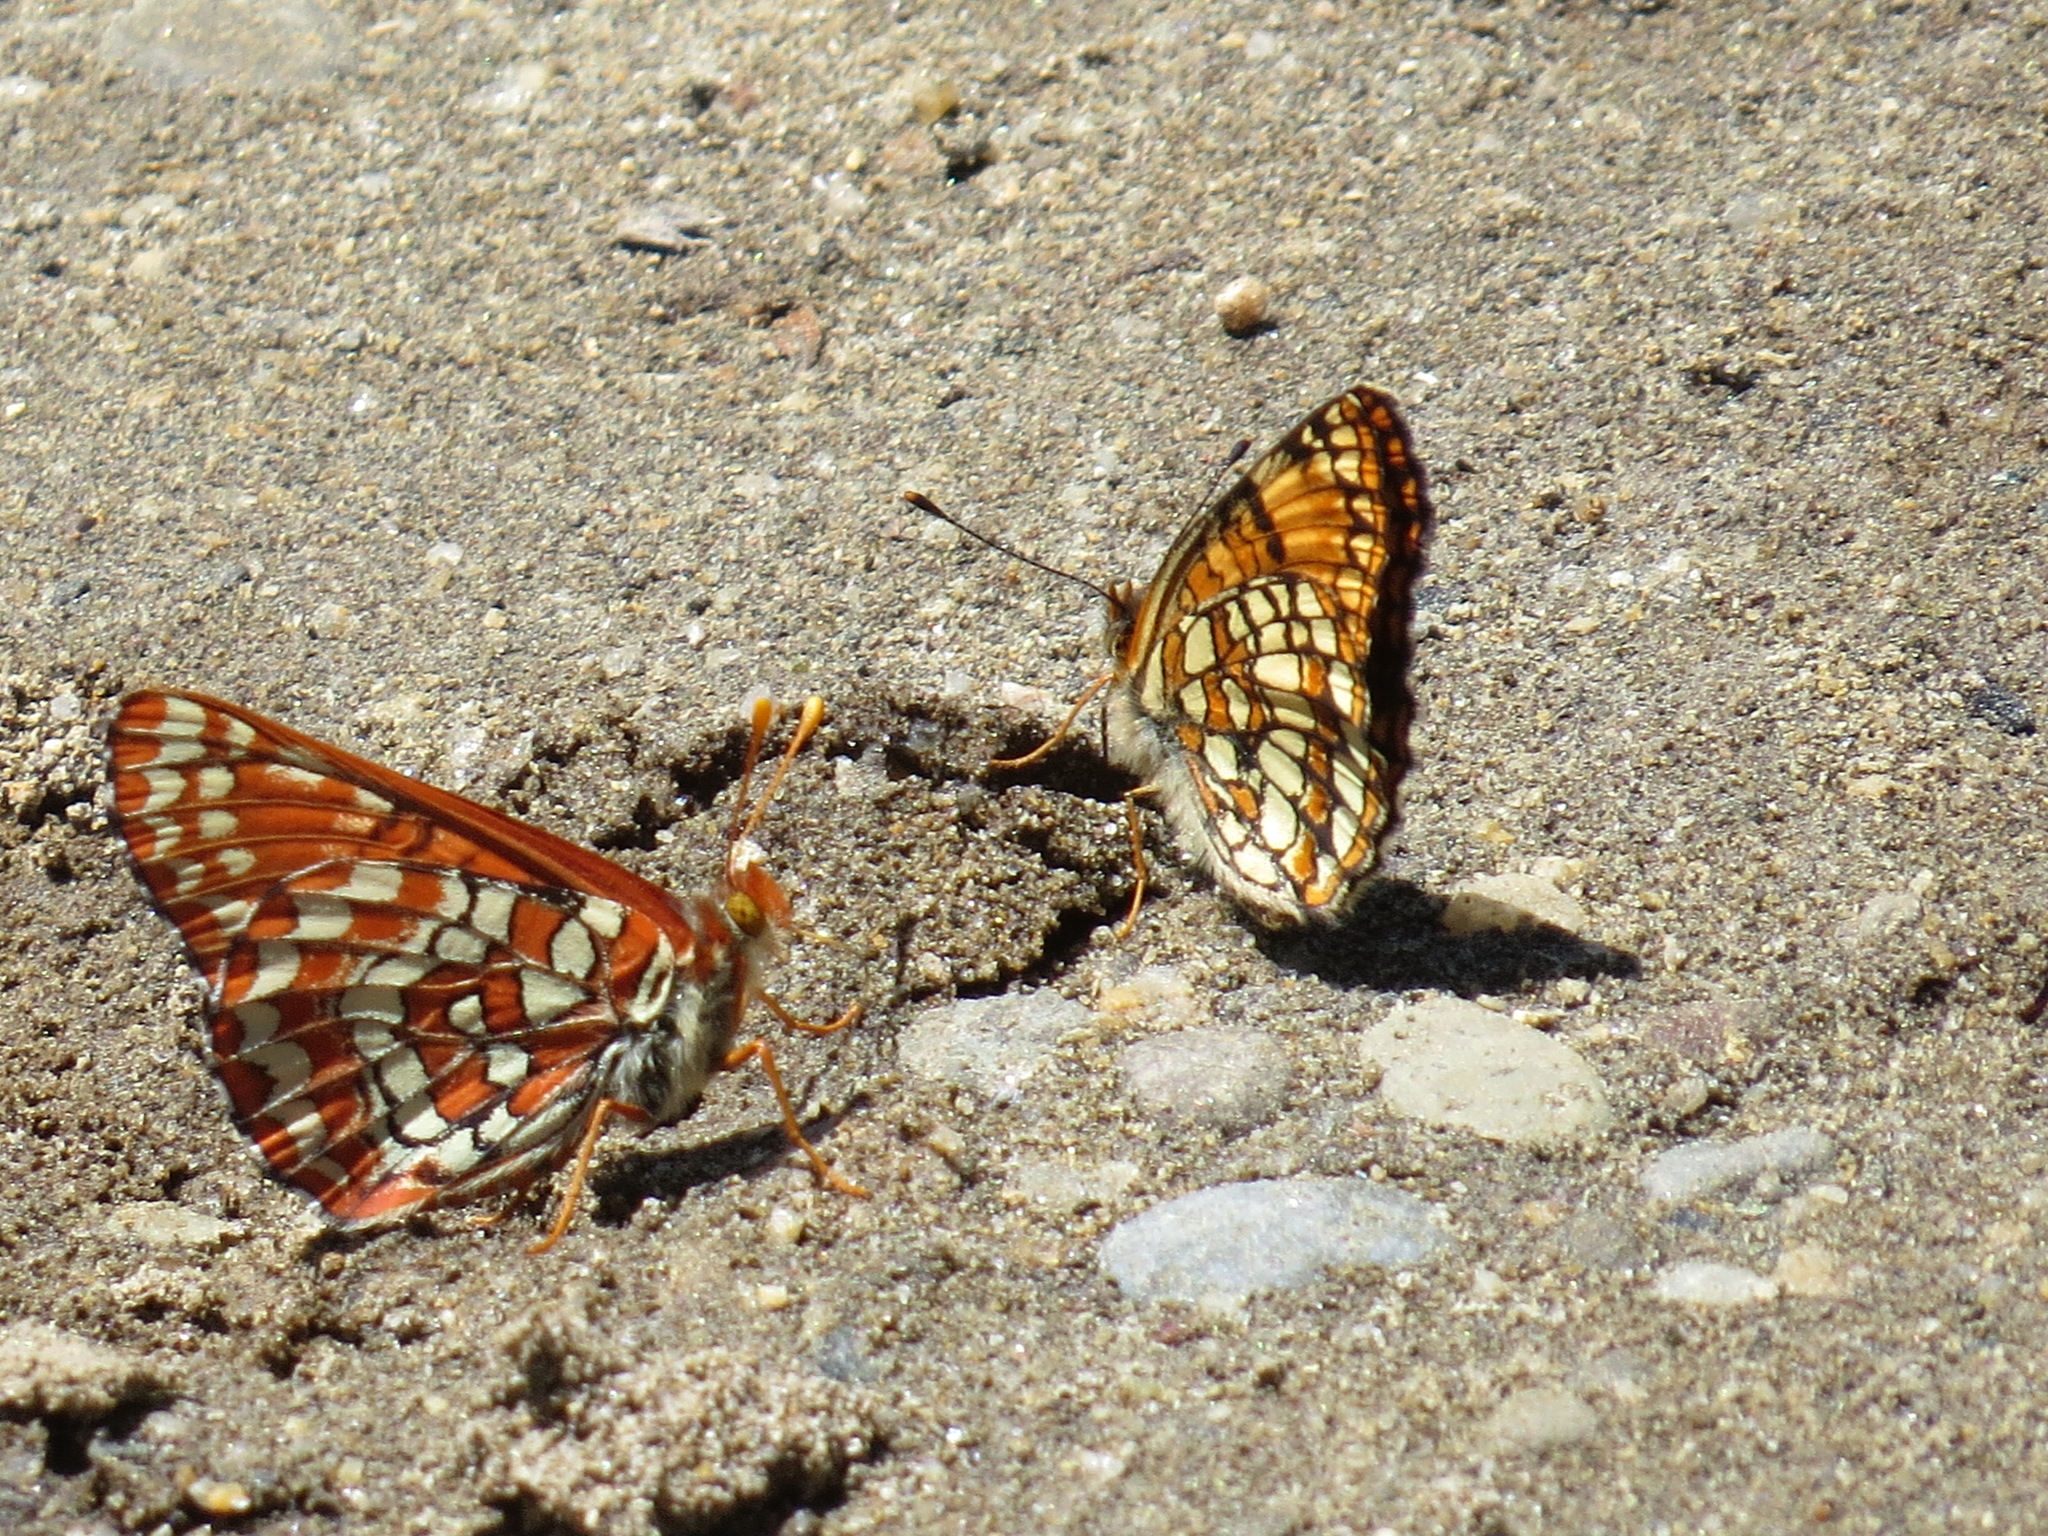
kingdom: Animalia
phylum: Arthropoda
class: Insecta
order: Lepidoptera
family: Nymphalidae
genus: Occidryas
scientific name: Occidryas chalcedona
